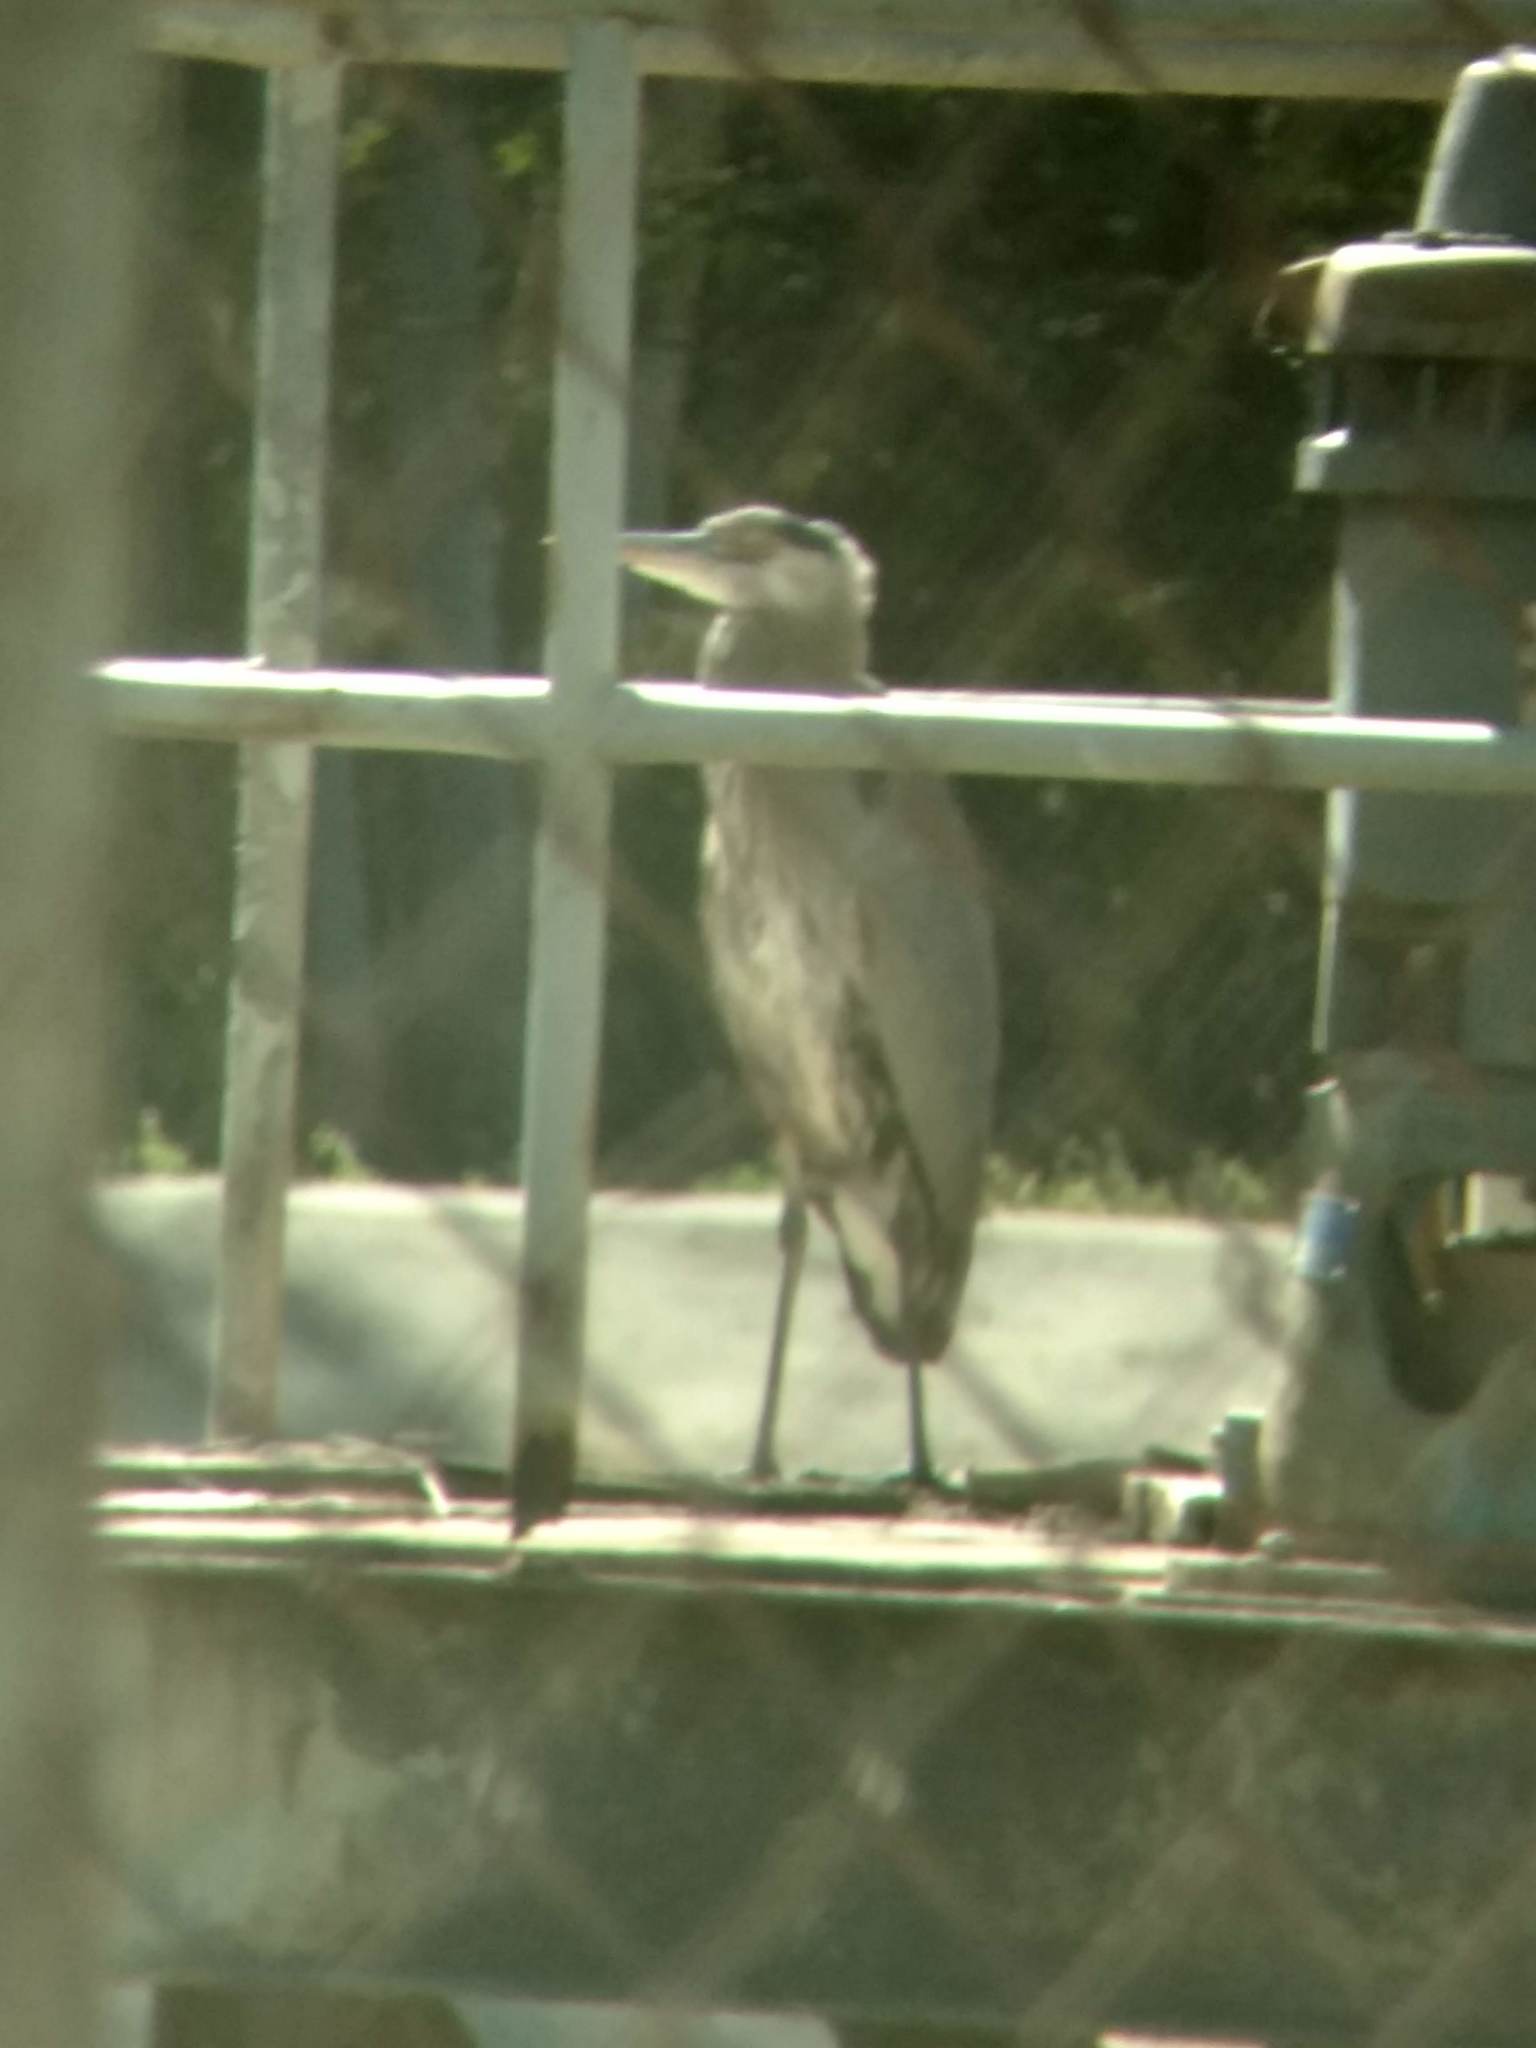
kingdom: Animalia
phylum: Chordata
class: Aves
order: Pelecaniformes
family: Ardeidae
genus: Ardea
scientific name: Ardea herodias
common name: Great blue heron
